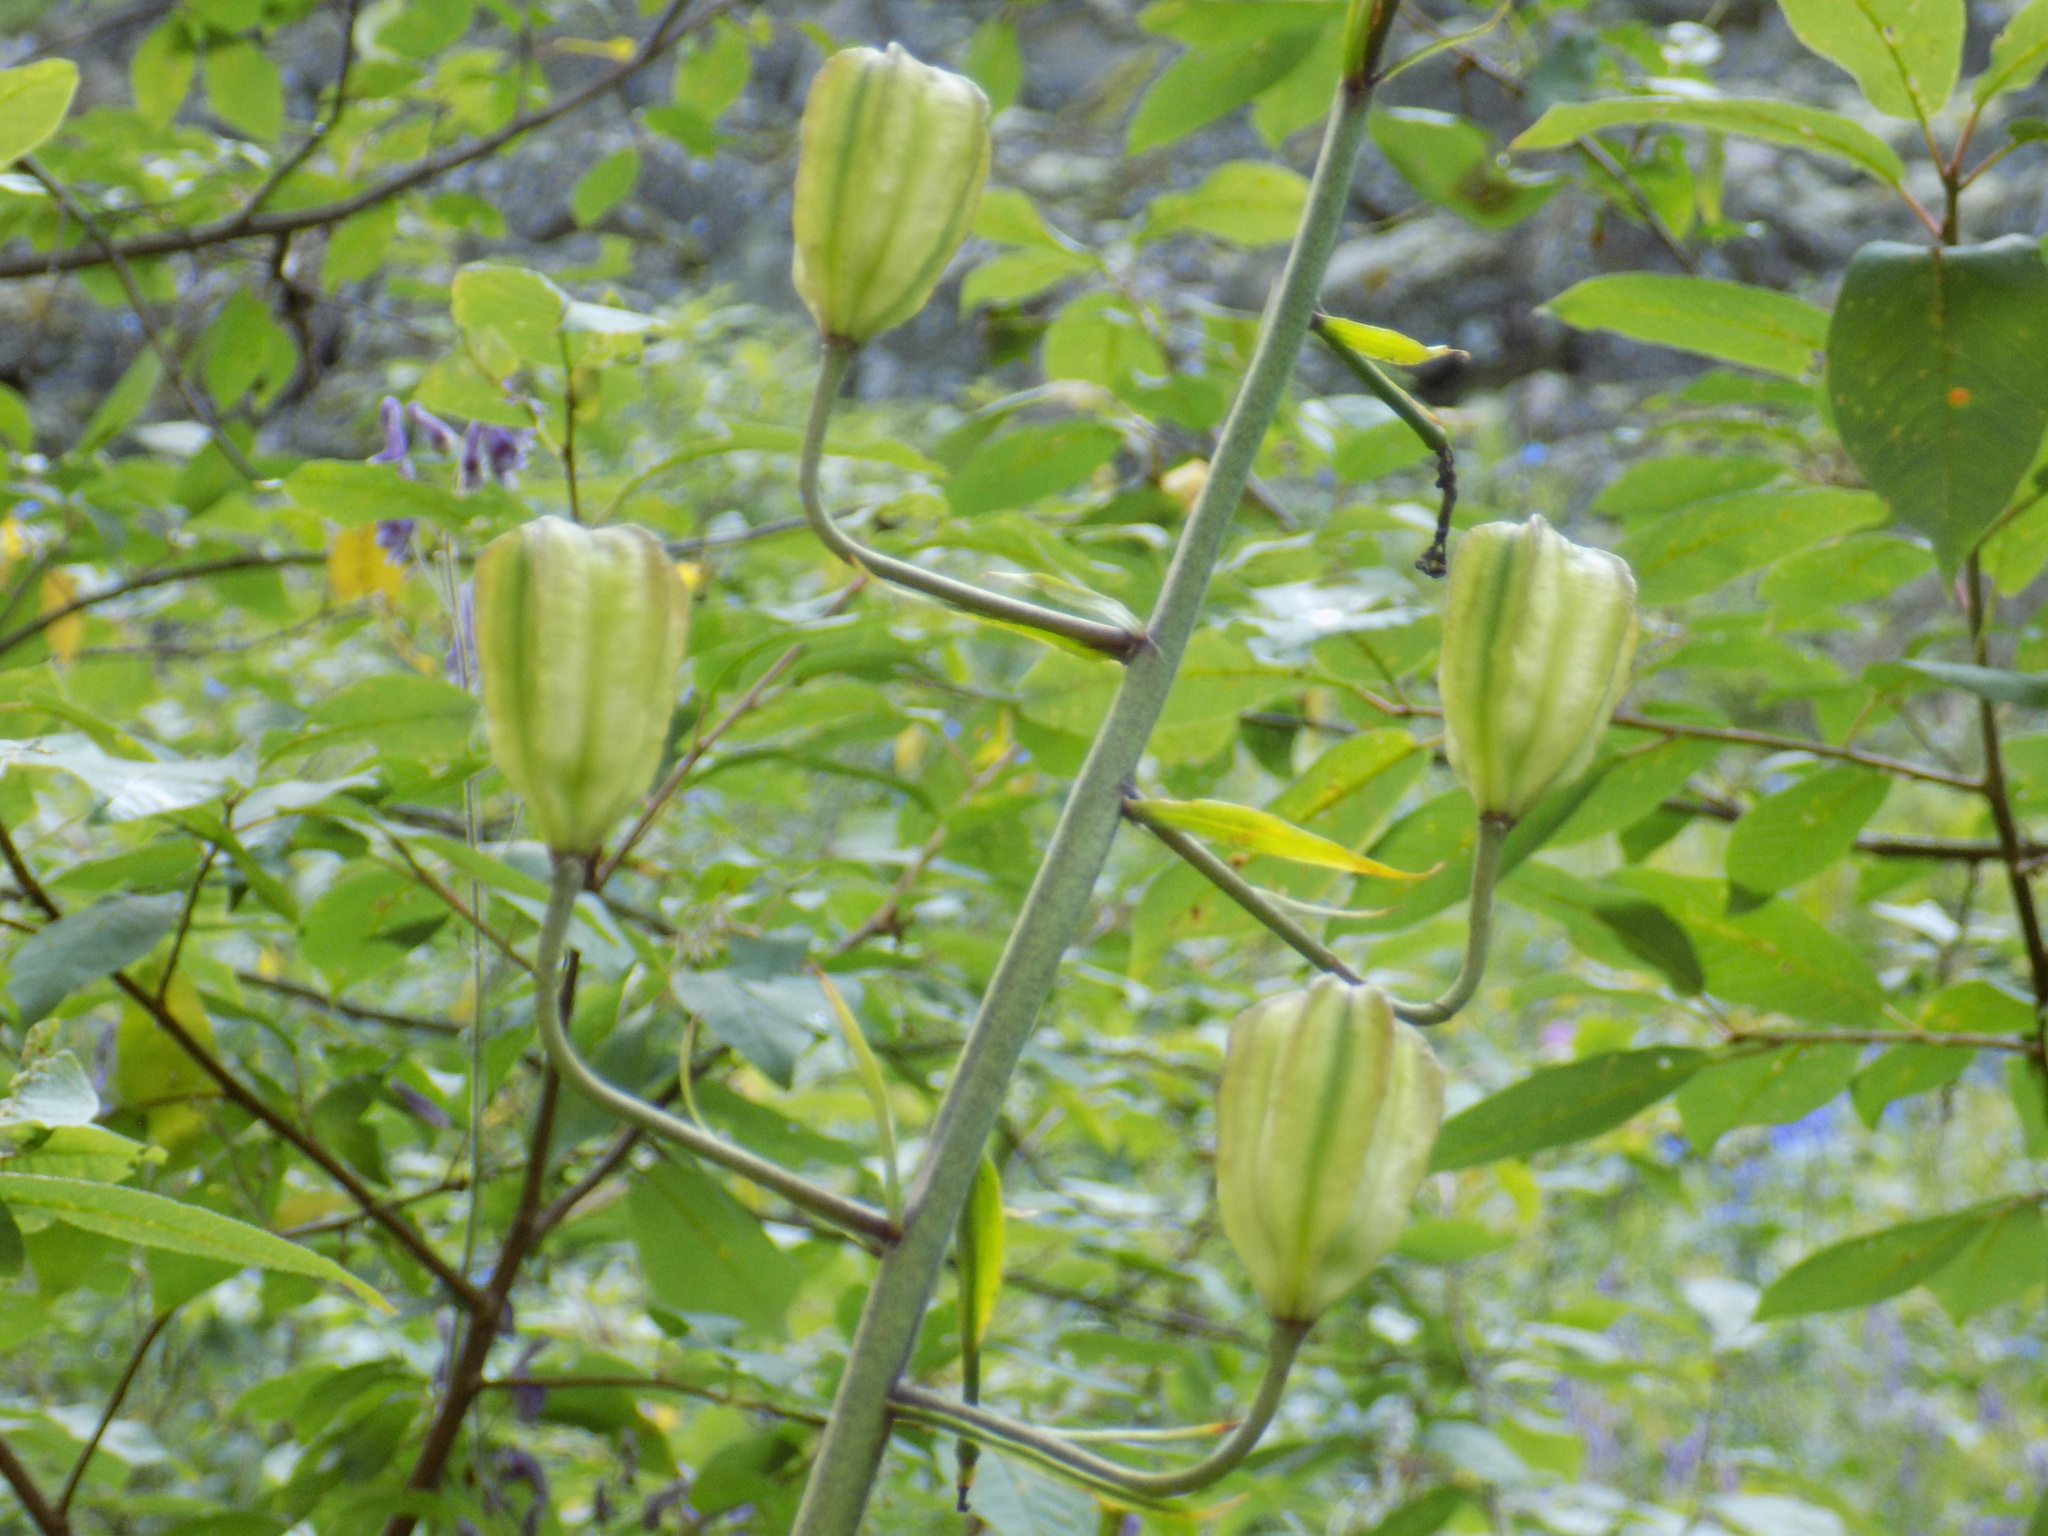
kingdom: Plantae
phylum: Tracheophyta
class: Liliopsida
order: Liliales
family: Liliaceae
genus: Lilium
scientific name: Lilium martagon
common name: Martagon lily
